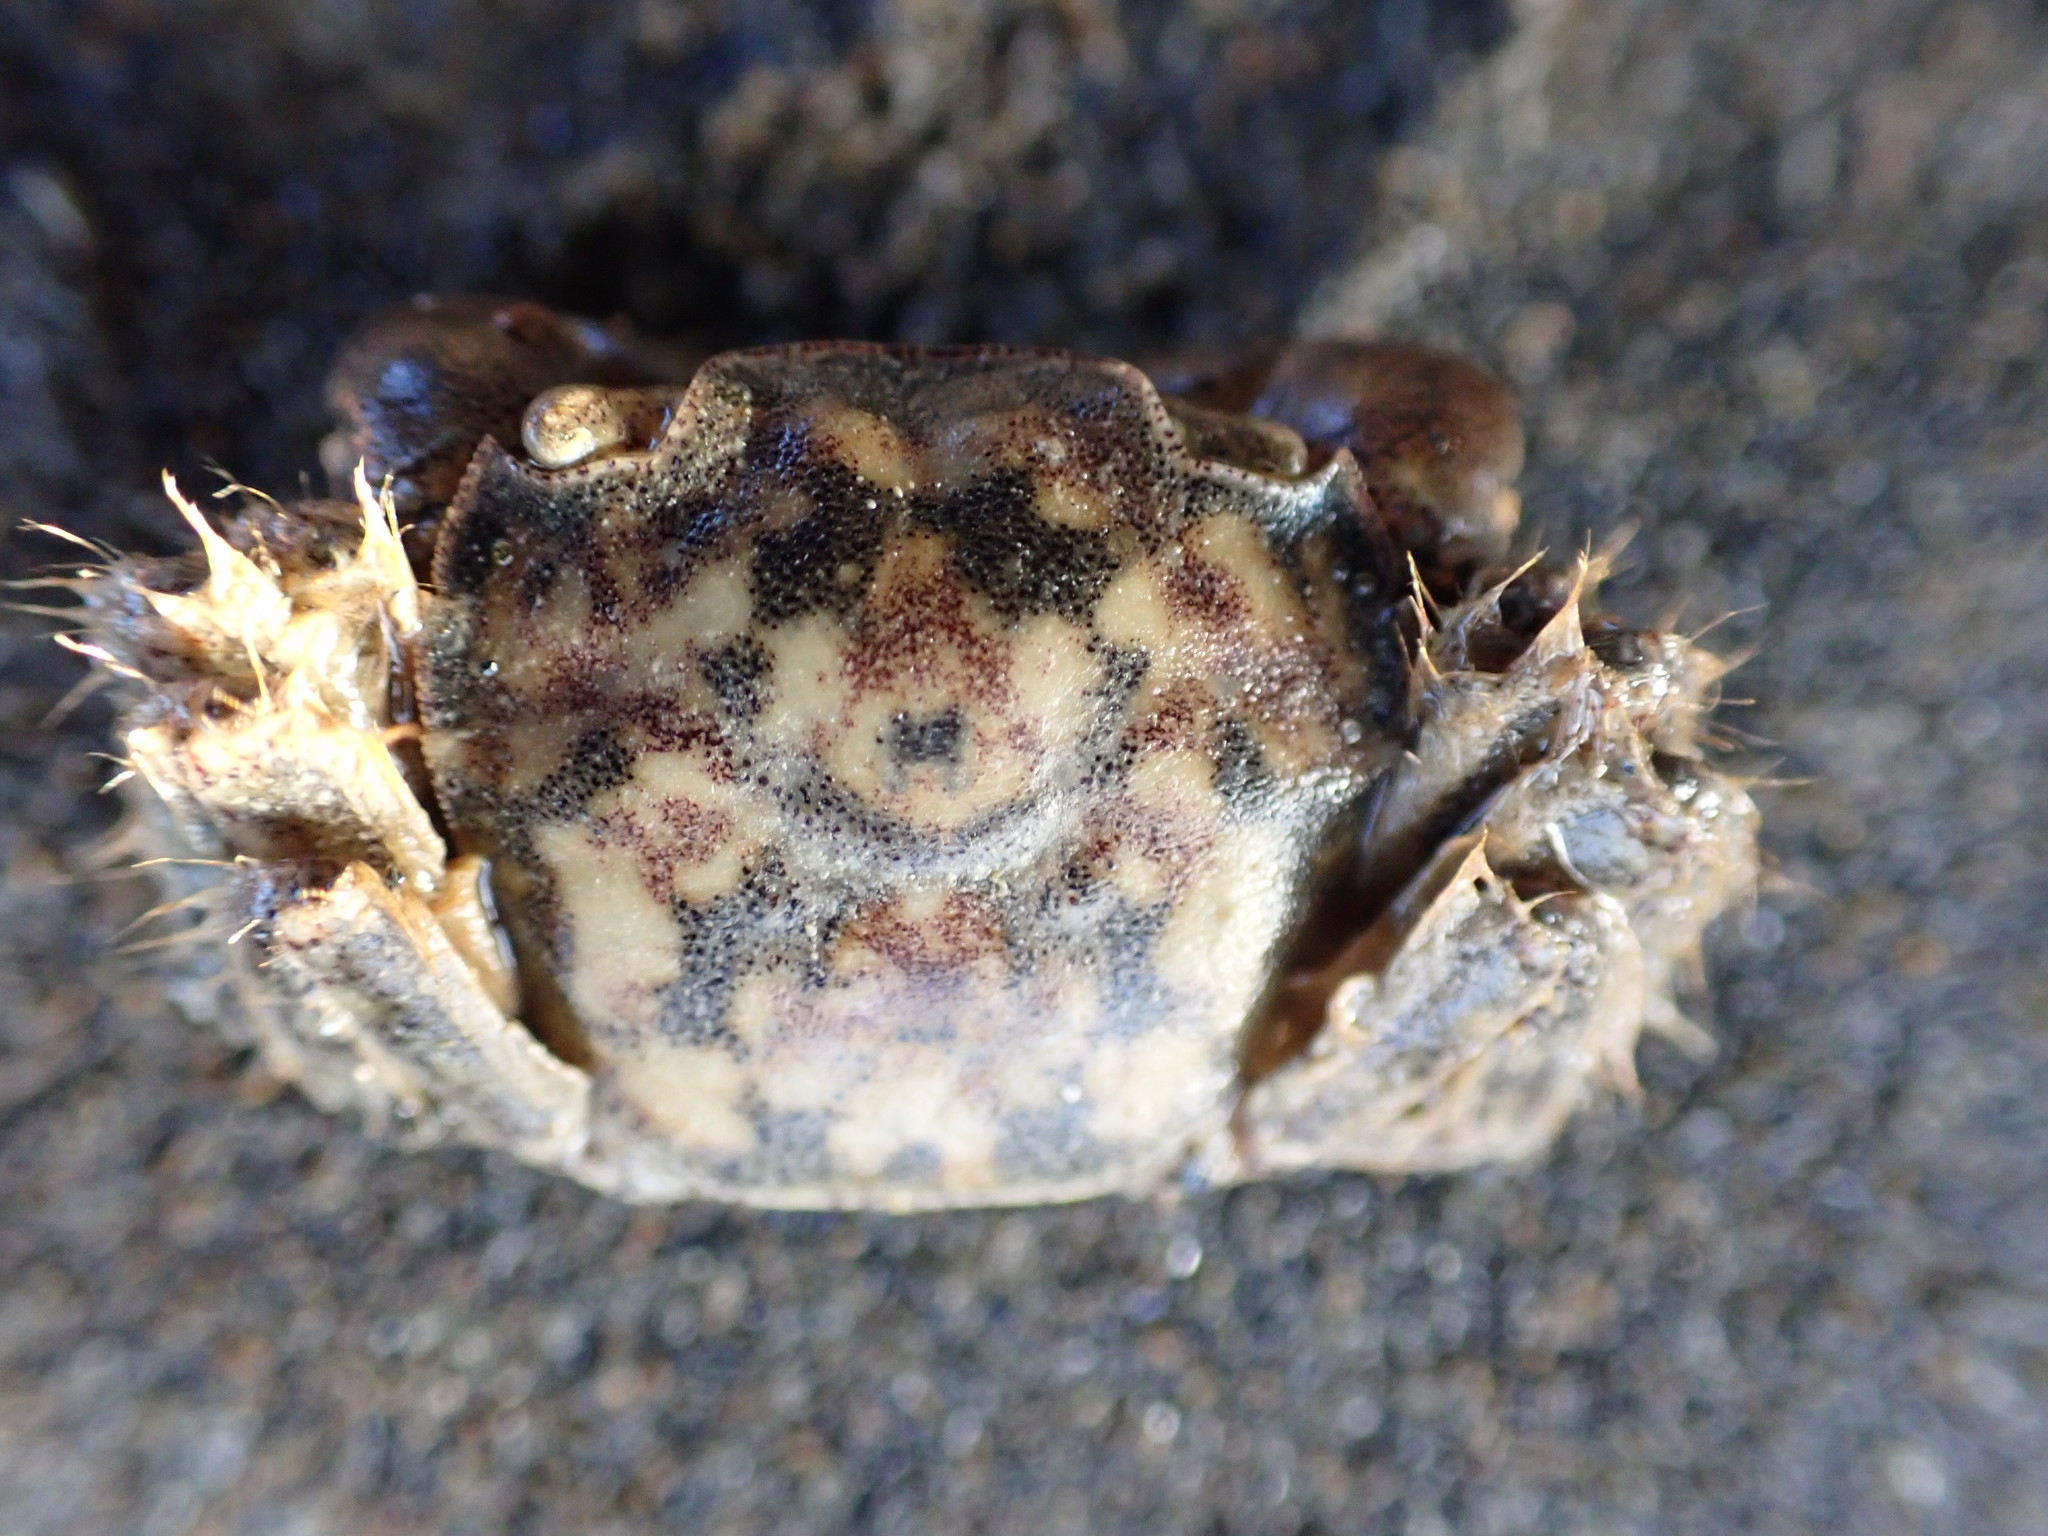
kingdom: Animalia
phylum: Arthropoda
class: Malacostraca
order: Decapoda
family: Varunidae
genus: Hemigrapsus
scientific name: Hemigrapsus crenulatus
